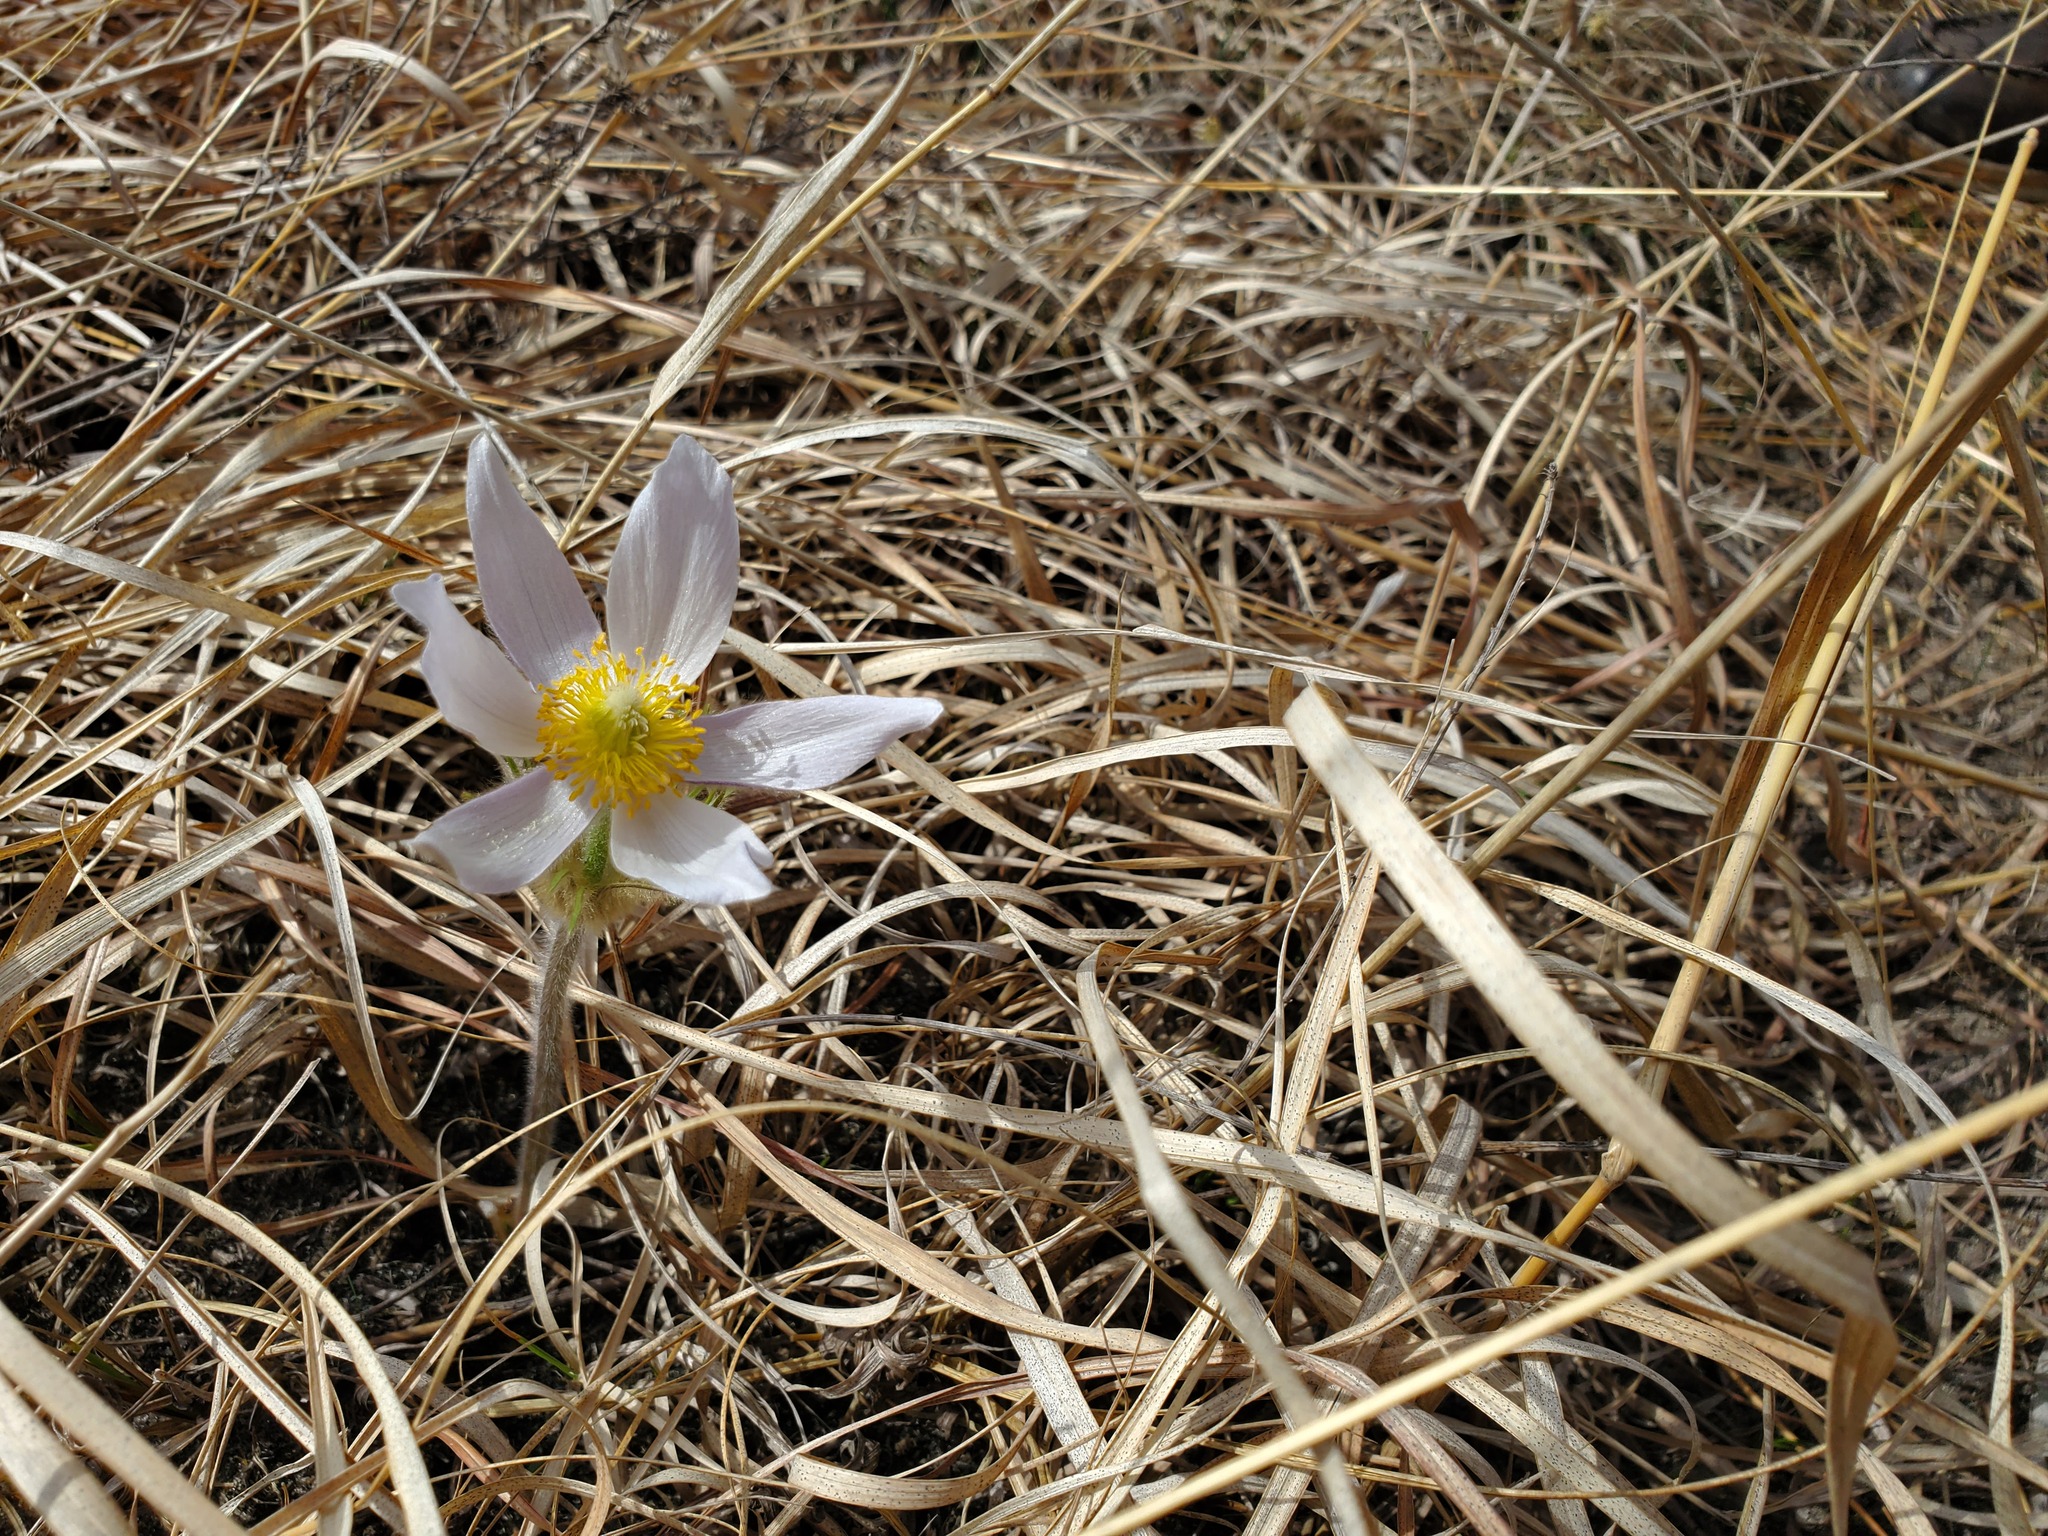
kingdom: Plantae
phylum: Tracheophyta
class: Magnoliopsida
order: Ranunculales
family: Ranunculaceae
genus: Pulsatilla
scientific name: Pulsatilla nuttalliana
